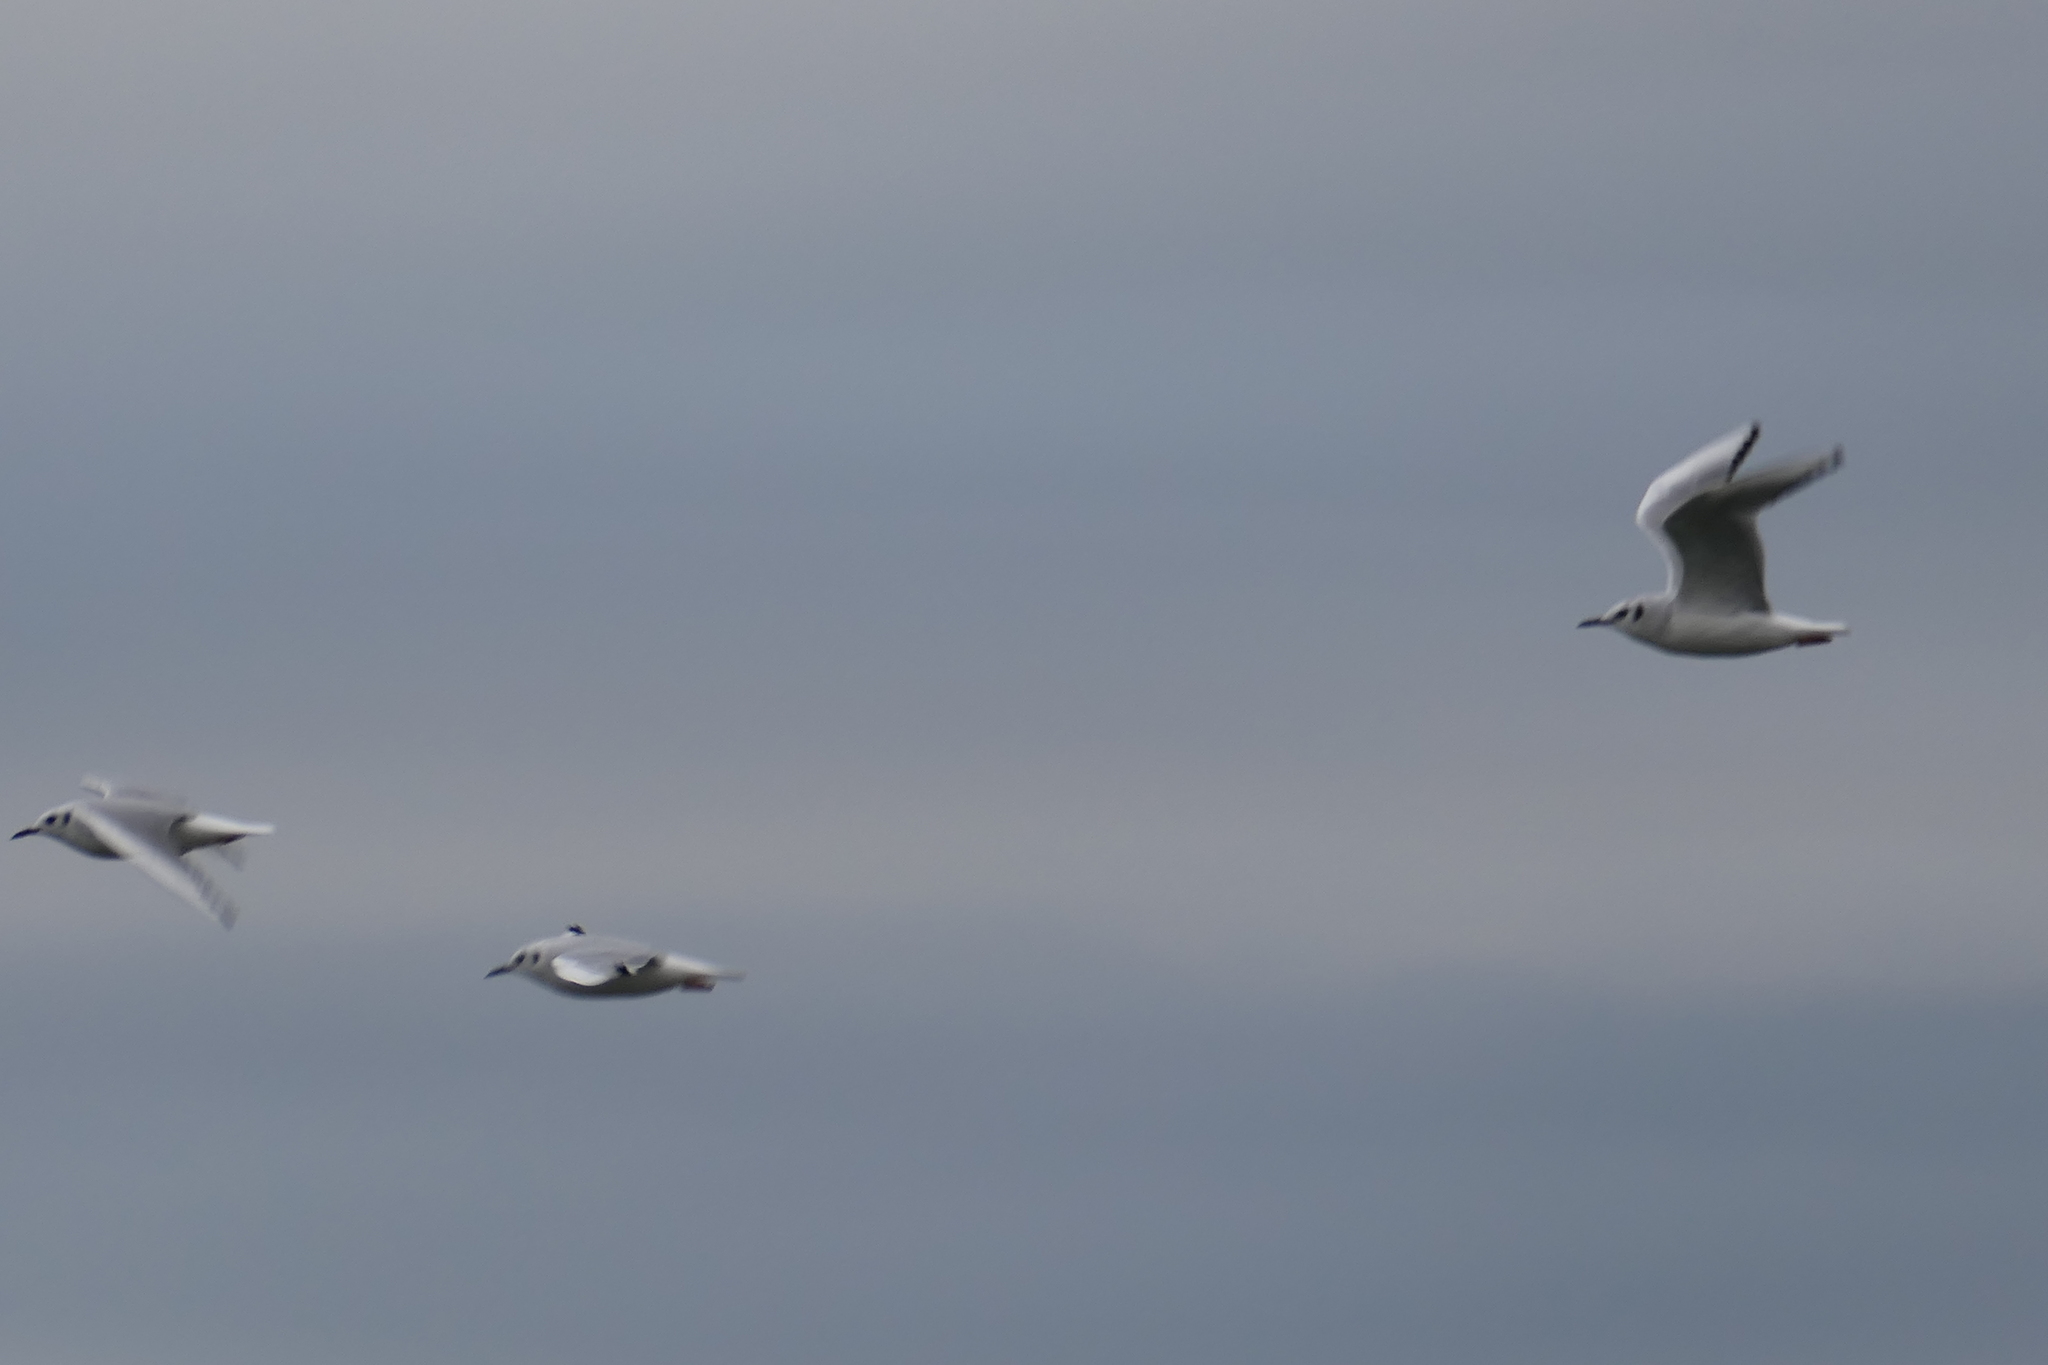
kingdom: Animalia
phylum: Chordata
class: Aves
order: Charadriiformes
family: Laridae
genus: Chroicocephalus
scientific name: Chroicocephalus philadelphia
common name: Bonaparte's gull
